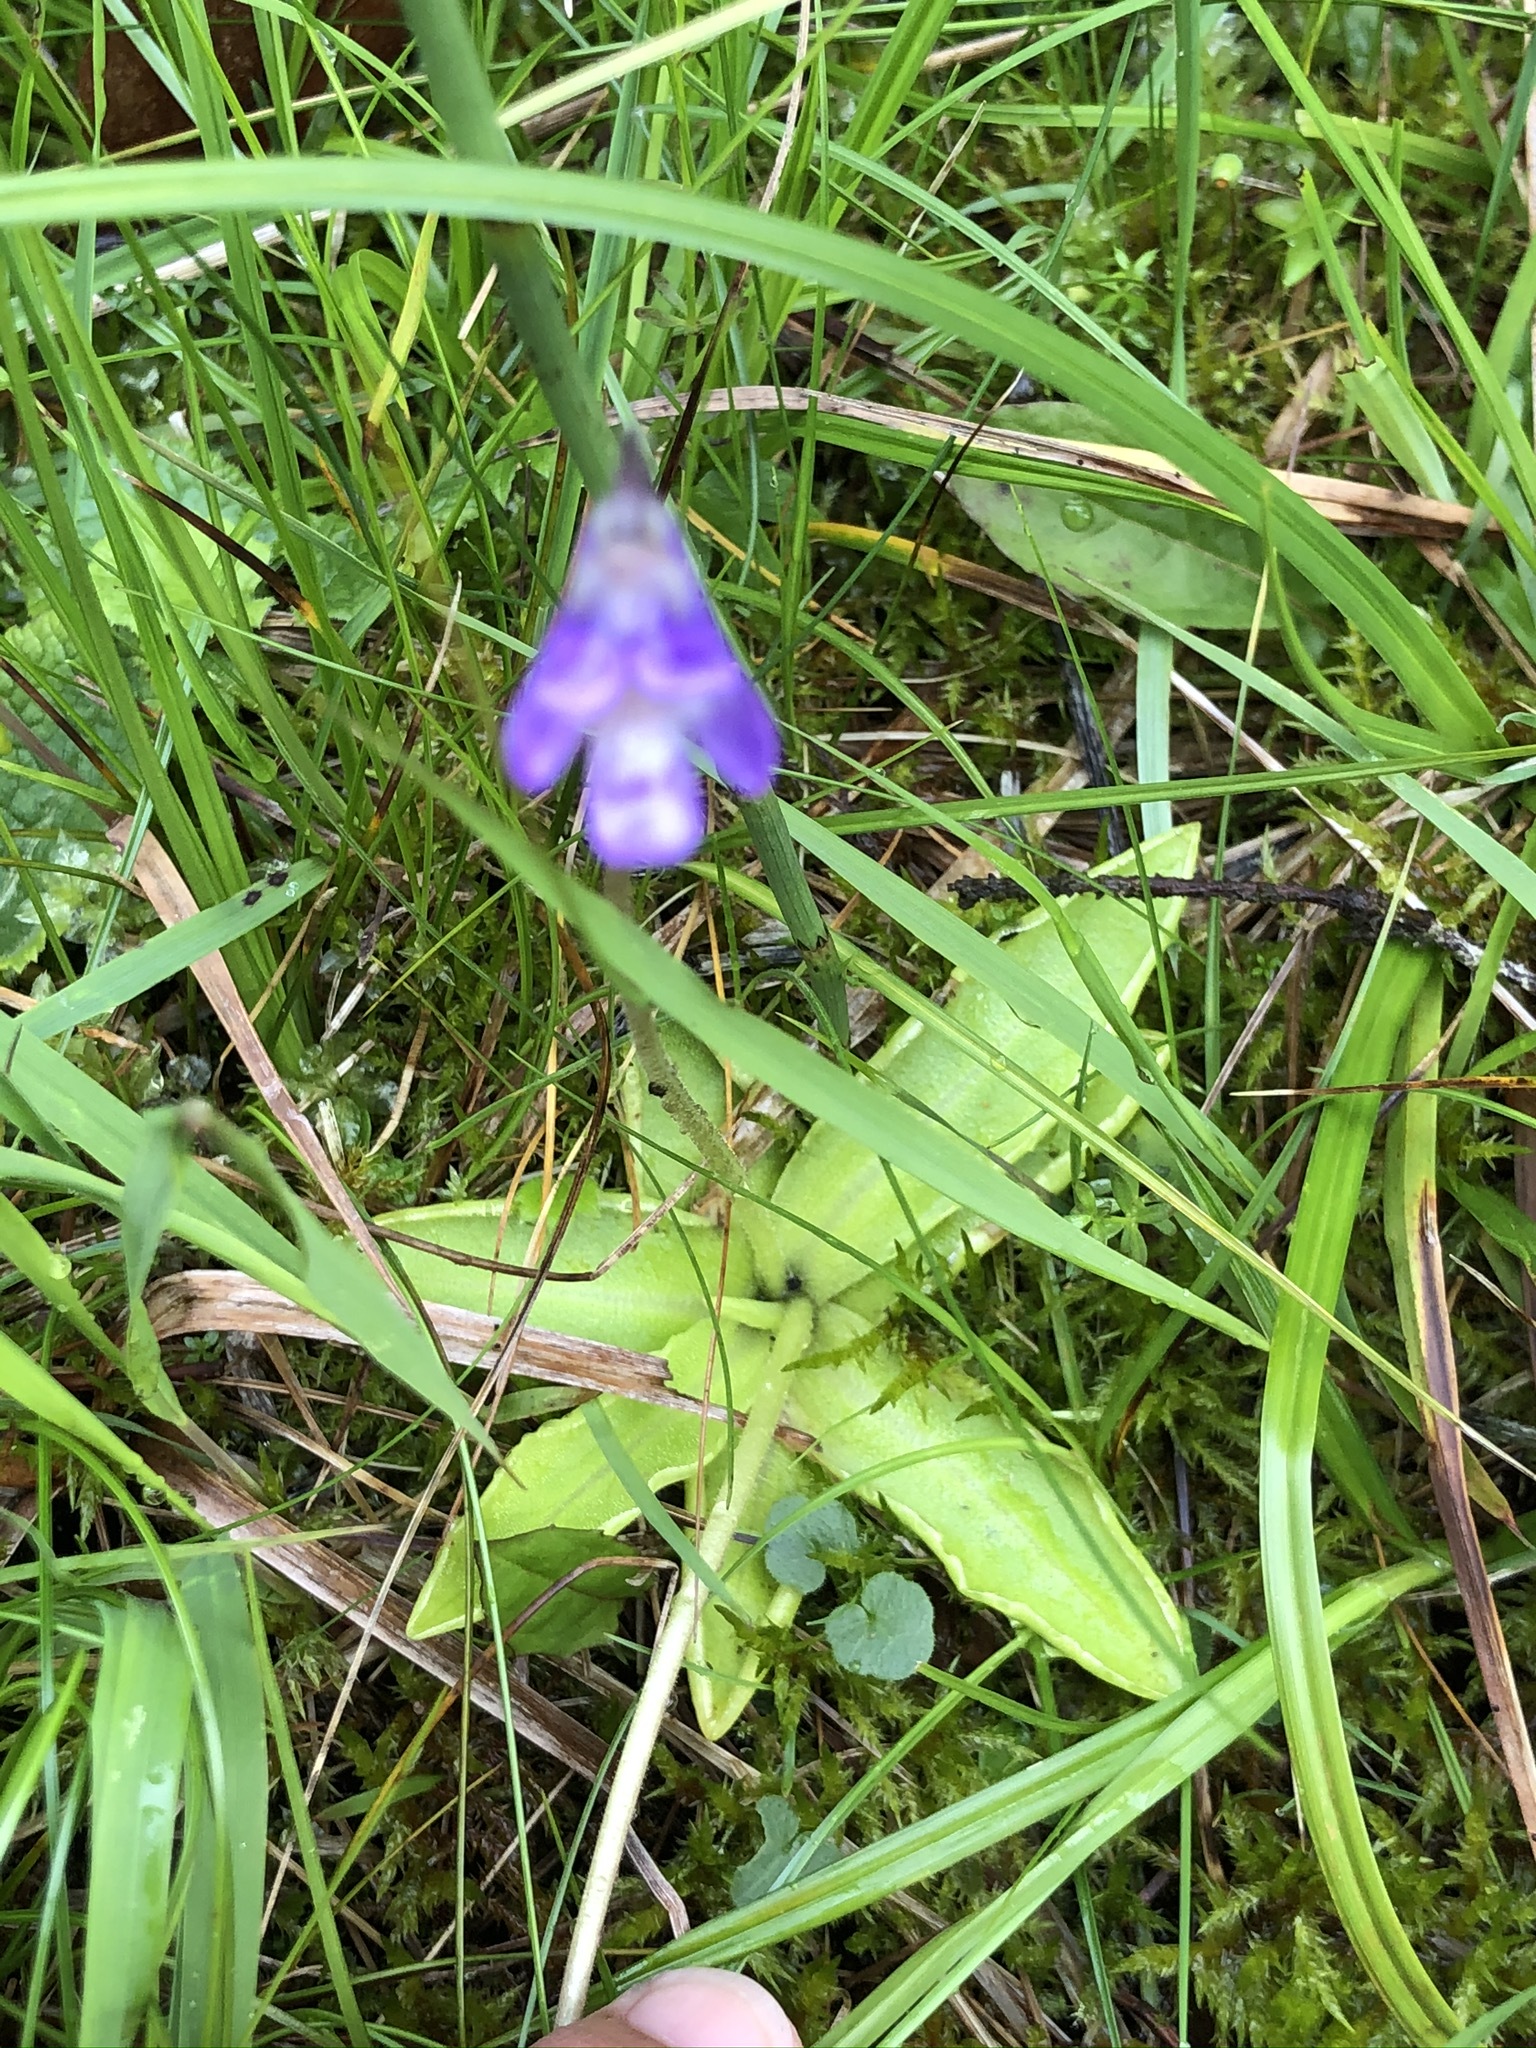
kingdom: Plantae
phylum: Tracheophyta
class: Magnoliopsida
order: Lamiales
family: Lentibulariaceae
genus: Pinguicula
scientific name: Pinguicula vulgaris
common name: Common butterwort
